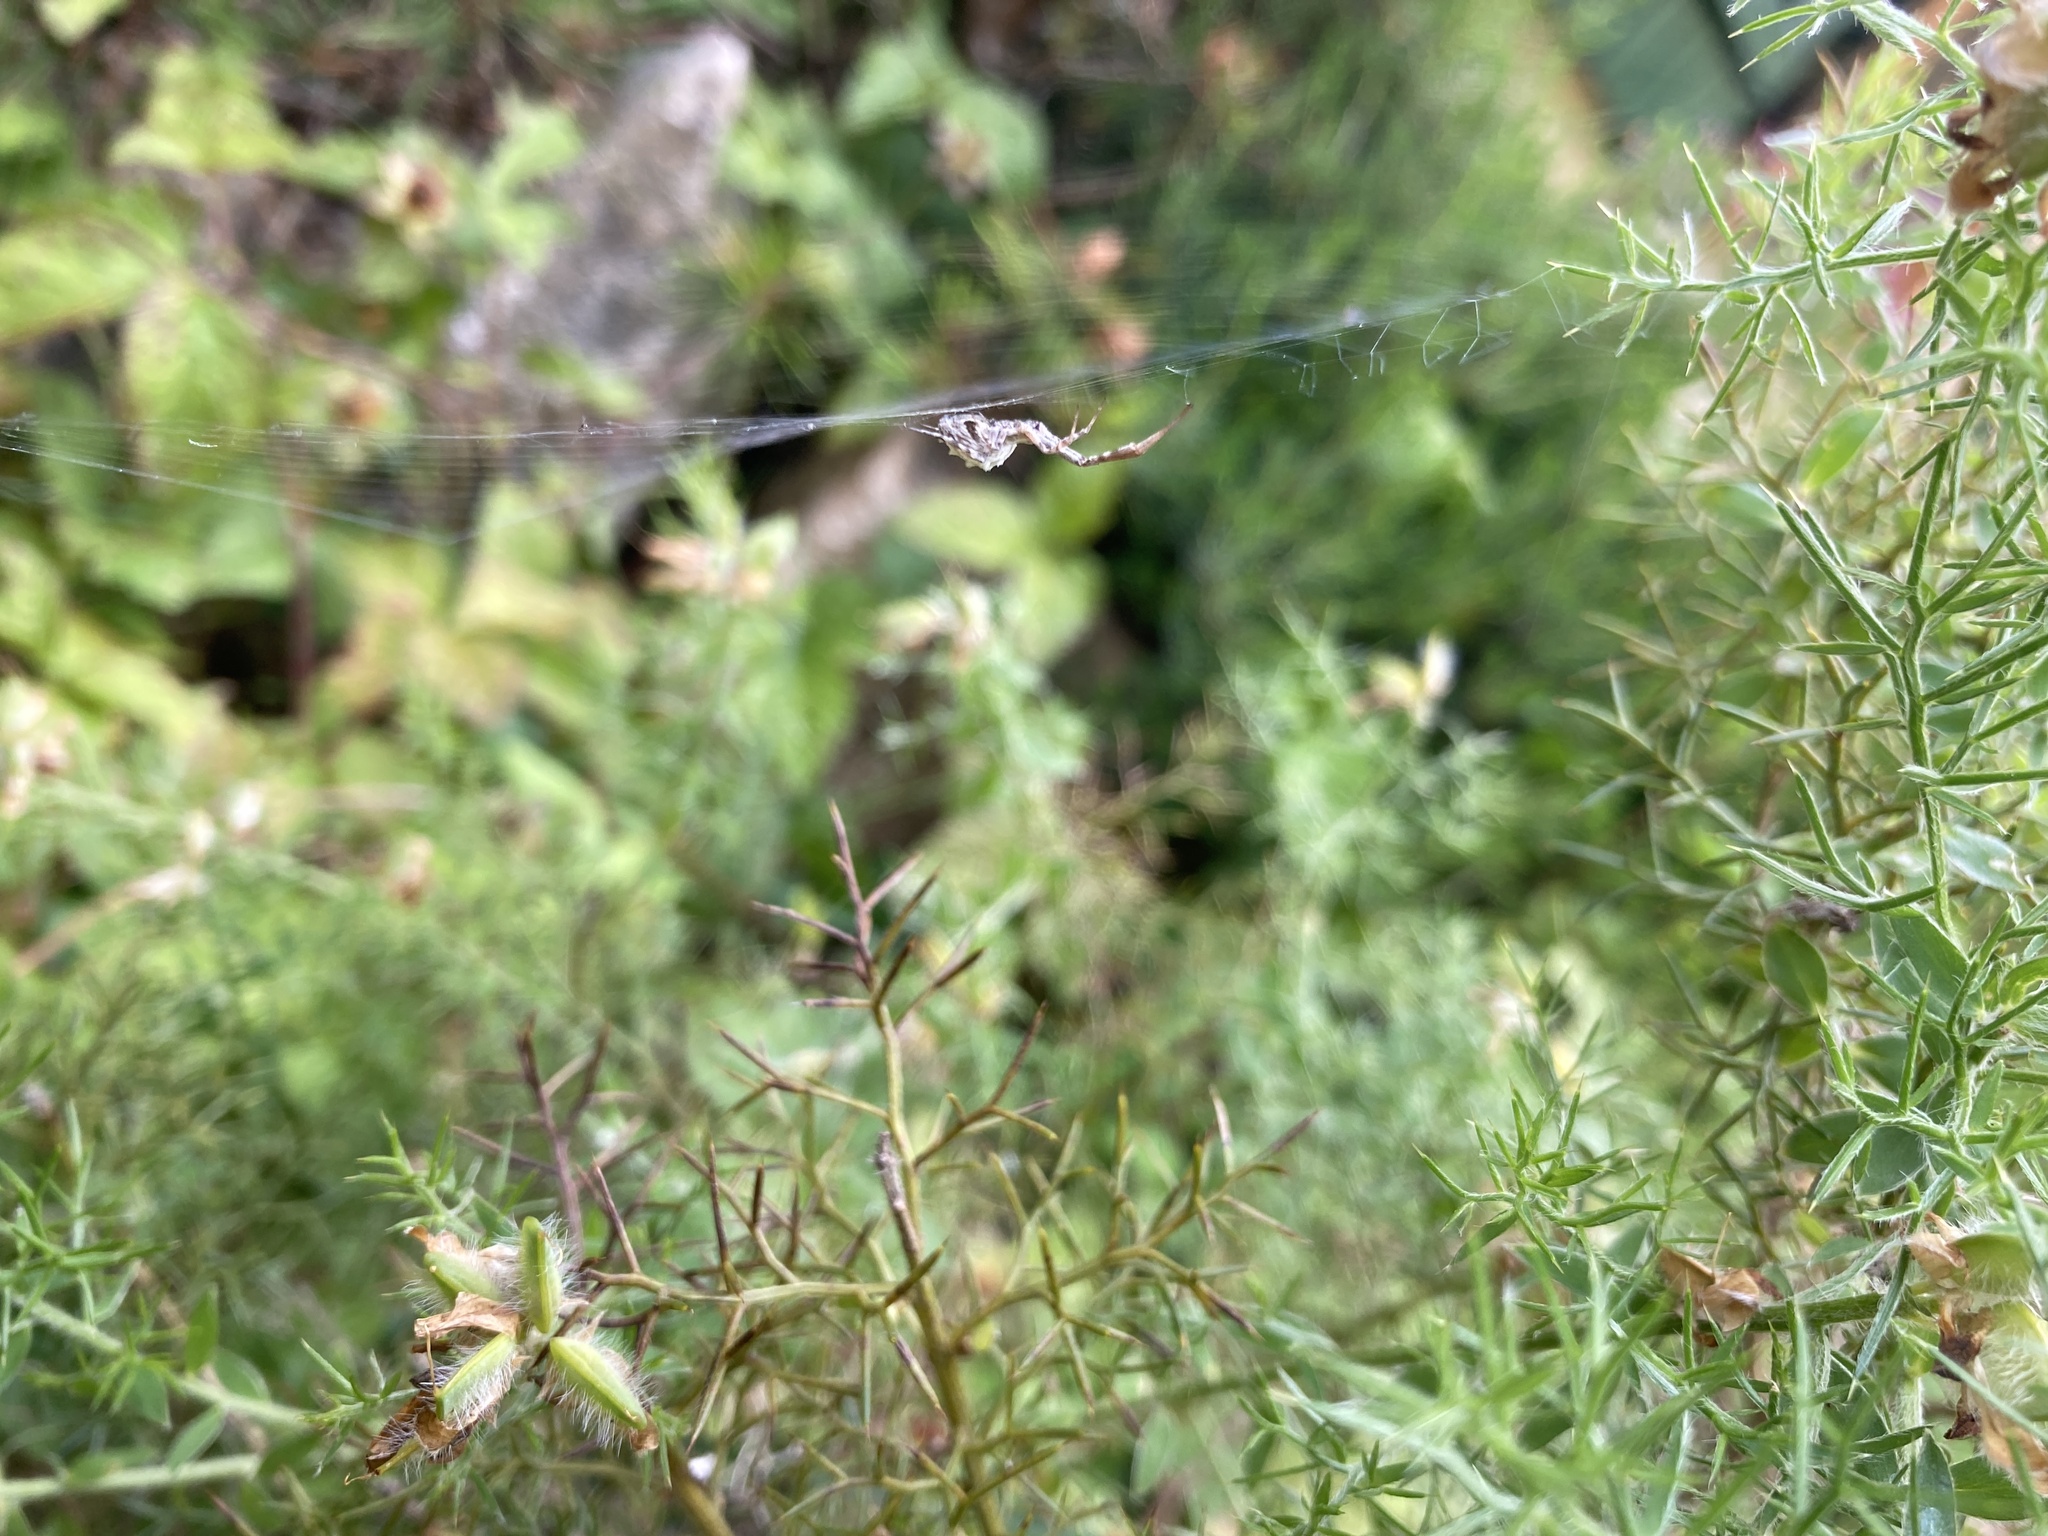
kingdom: Animalia
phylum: Arthropoda
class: Arachnida
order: Araneae
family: Uloboridae
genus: Uloborus
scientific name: Uloborus walckenaerius
